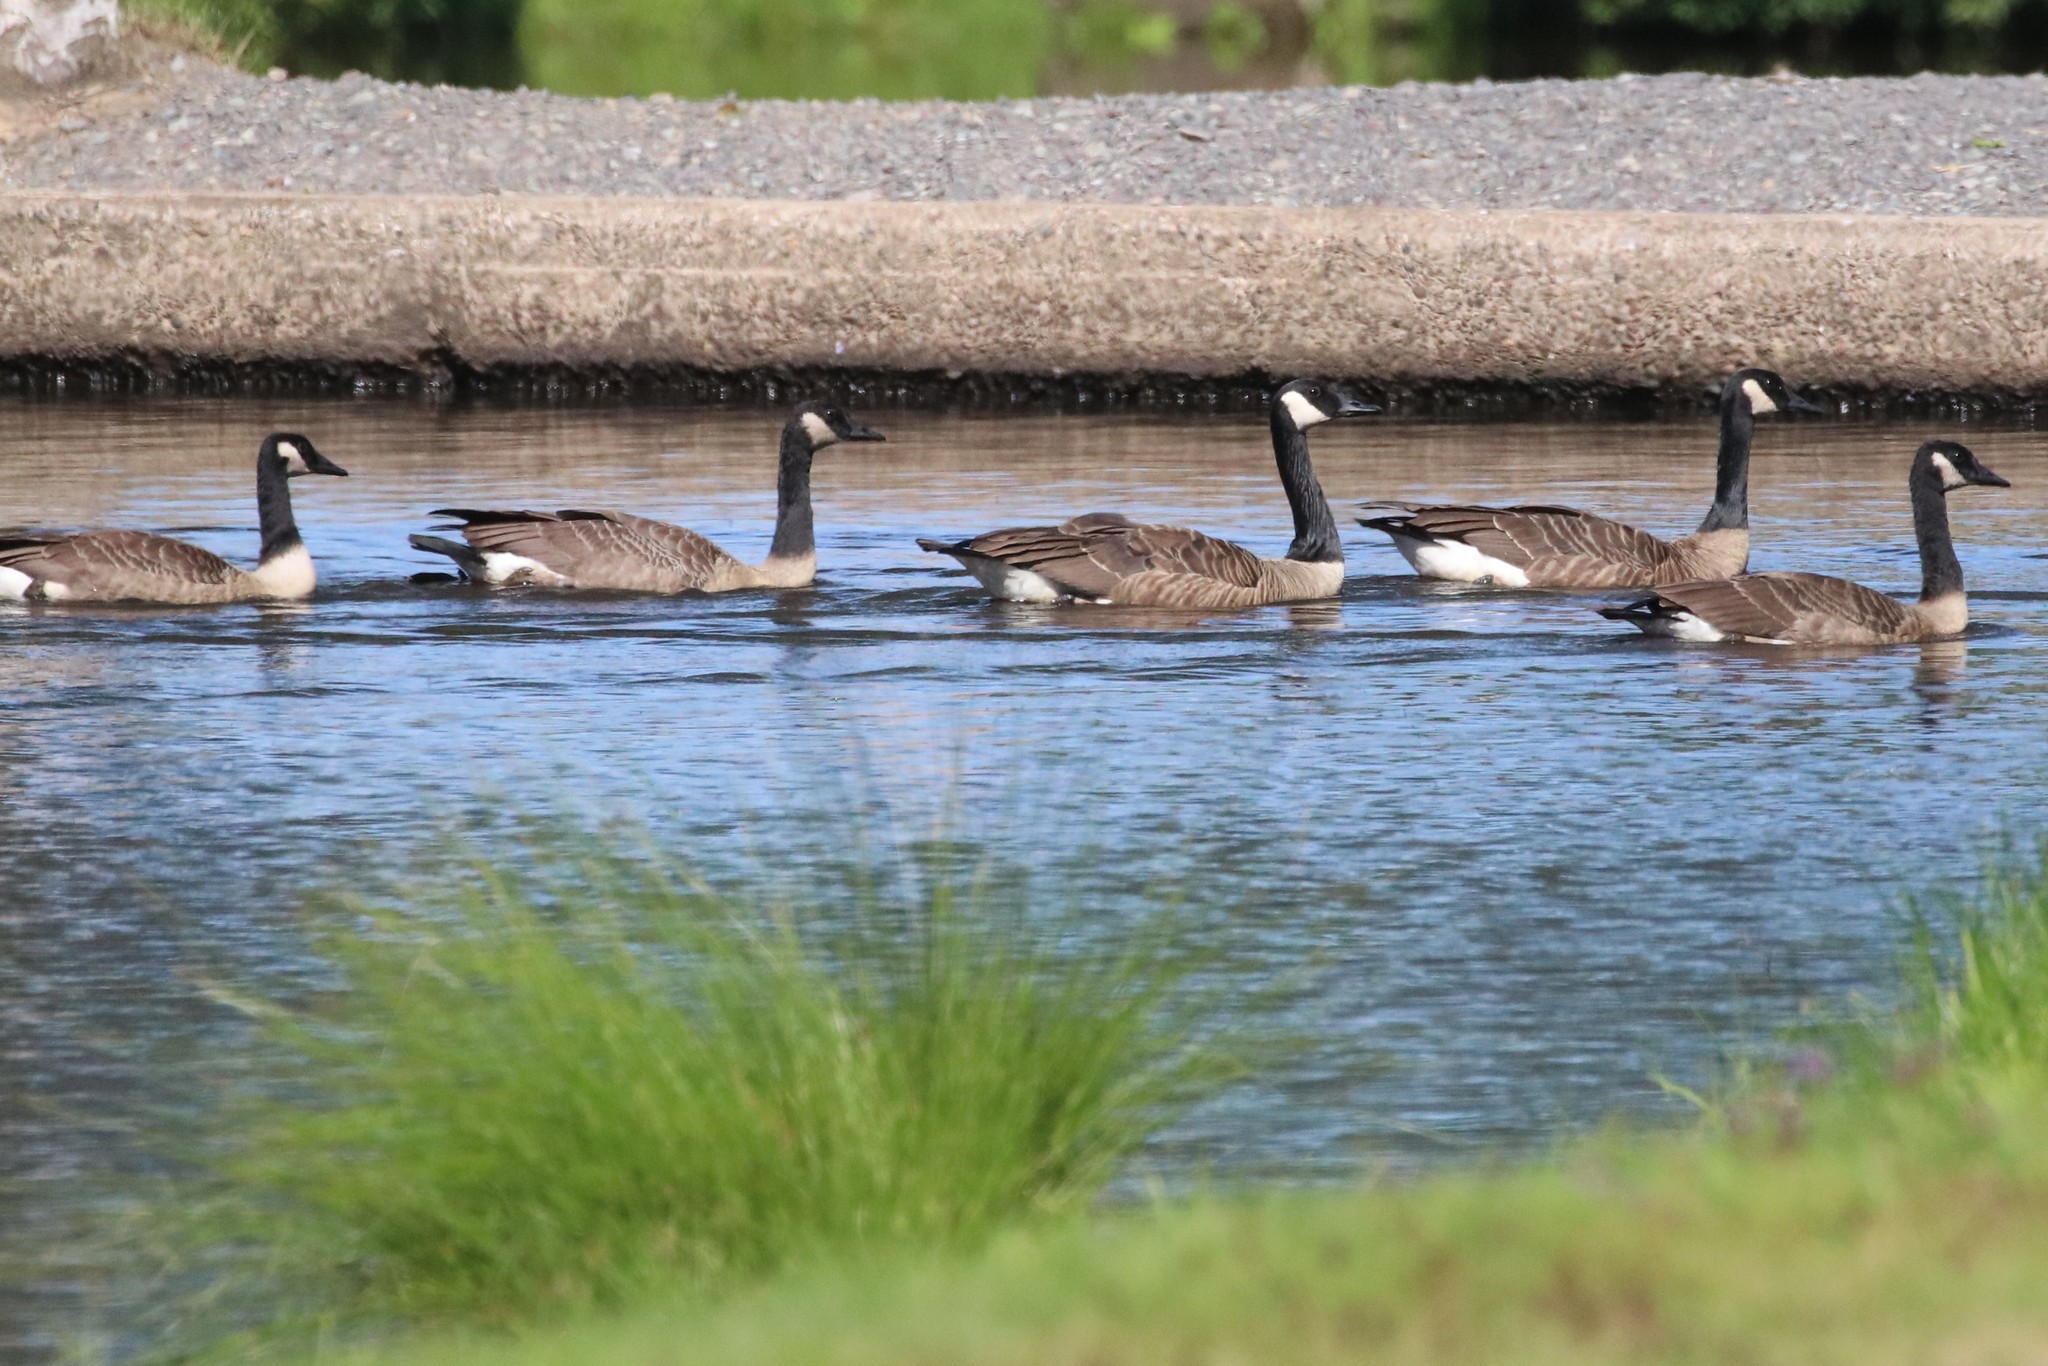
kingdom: Animalia
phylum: Chordata
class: Aves
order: Anseriformes
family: Anatidae
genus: Branta
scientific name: Branta canadensis
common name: Canada goose
